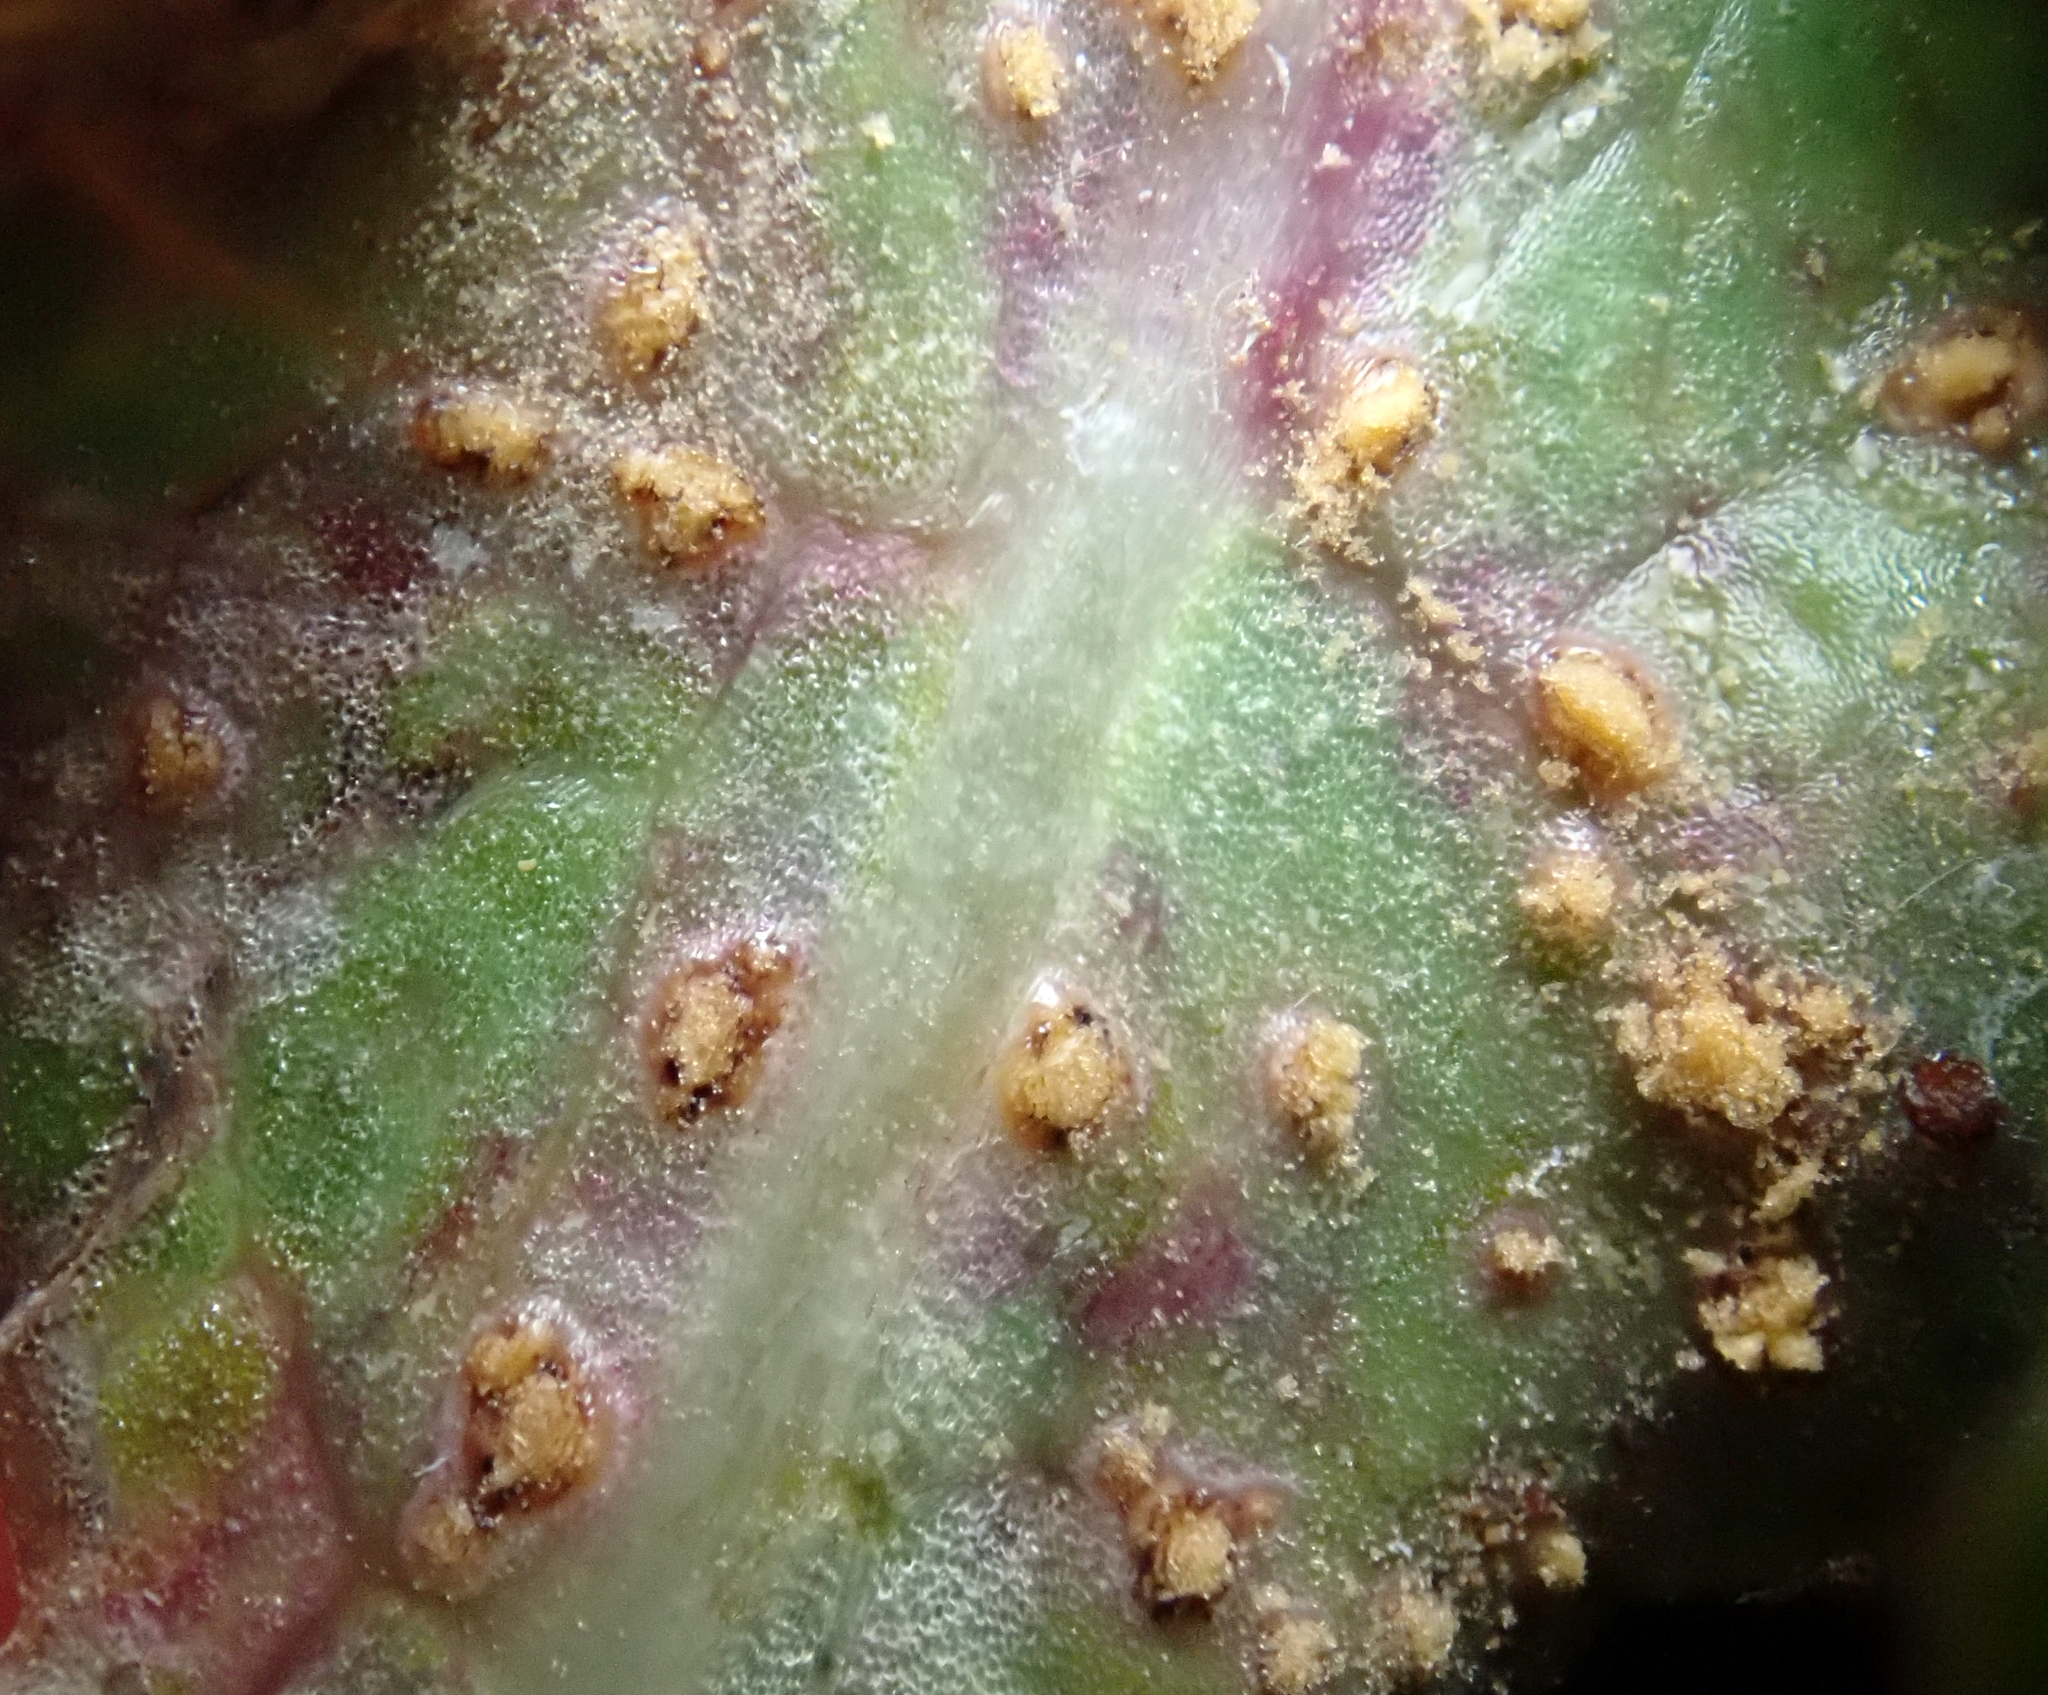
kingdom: Fungi
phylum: Basidiomycota
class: Pucciniomycetes
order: Pucciniales
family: Pucciniaceae
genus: Peristemma
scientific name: Peristemma pseudosphaeria
